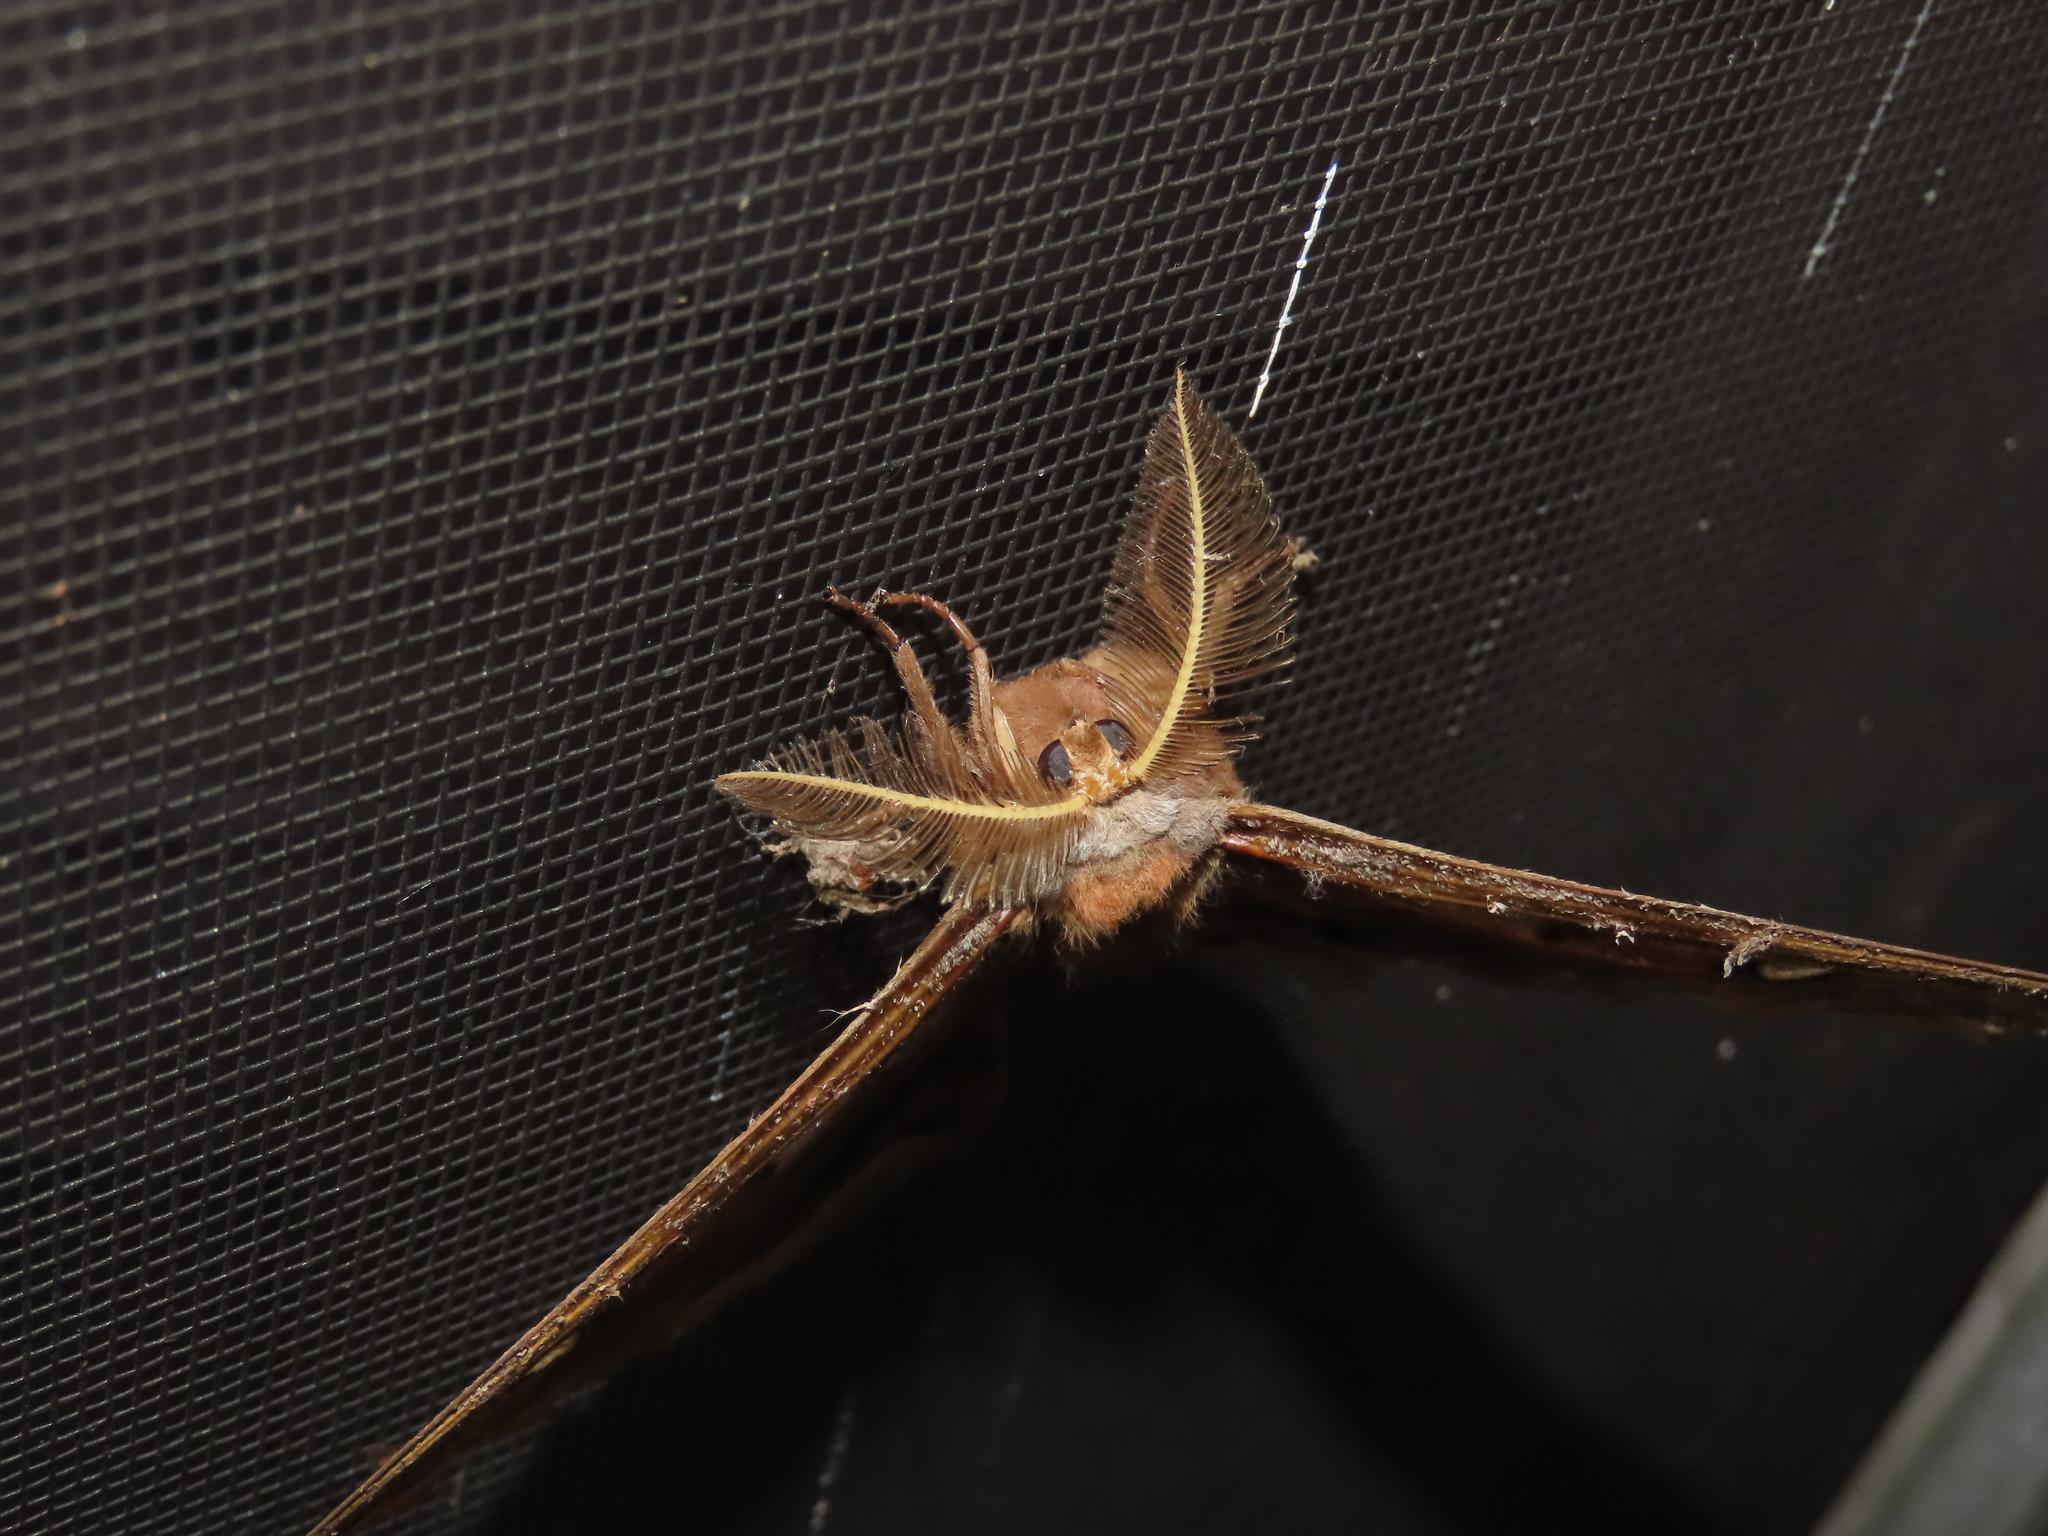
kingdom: Animalia
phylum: Arthropoda
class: Insecta
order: Lepidoptera
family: Saturniidae
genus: Antheraea
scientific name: Antheraea polyphemus
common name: Polyphemus moth
